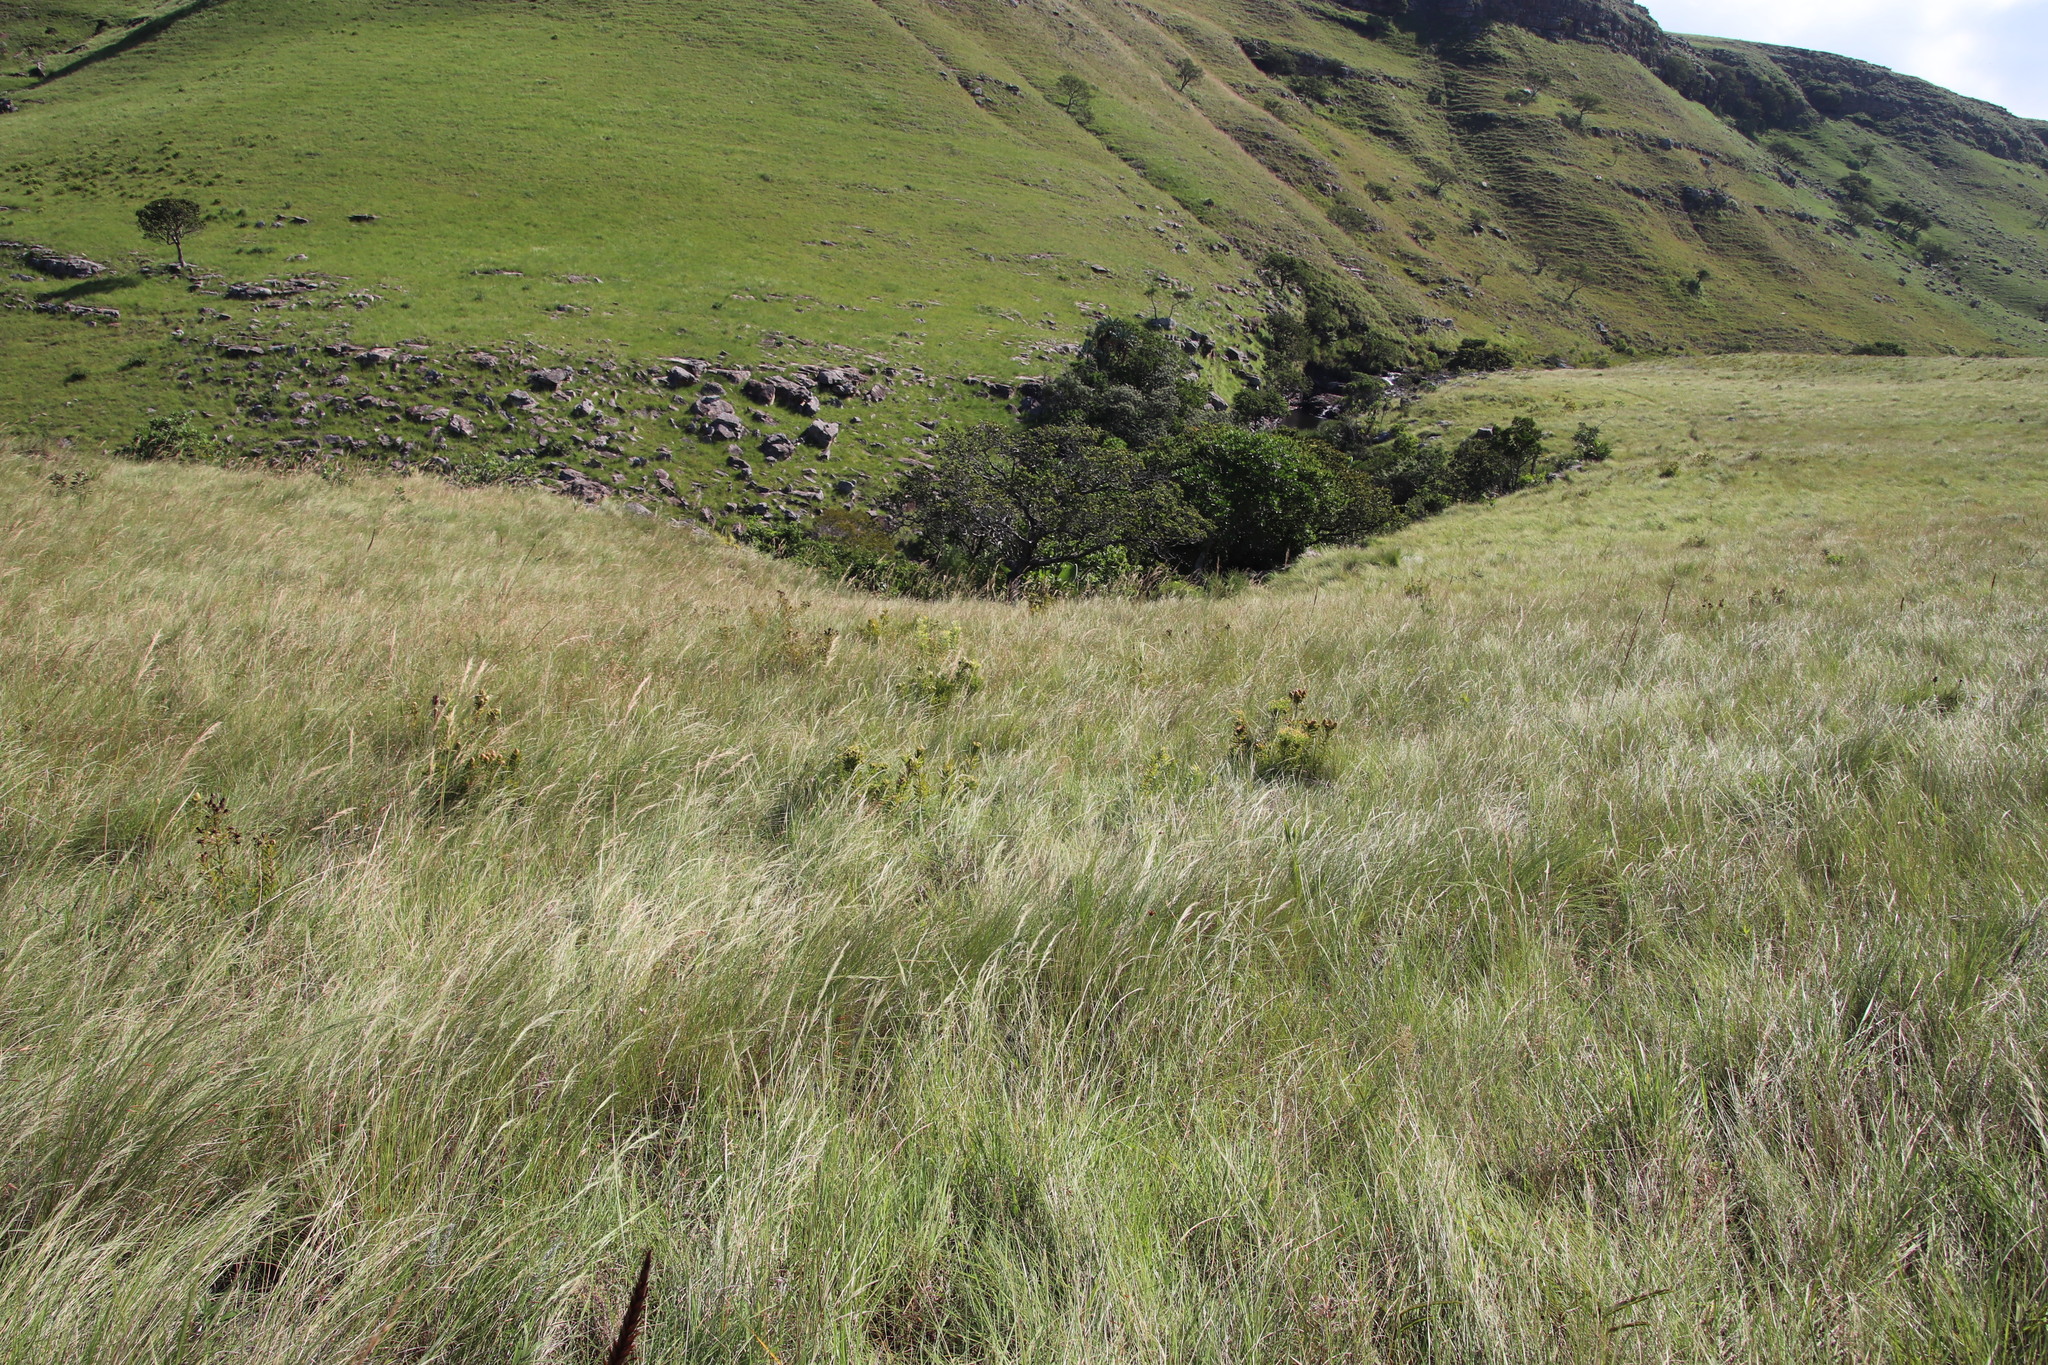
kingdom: Plantae
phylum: Tracheophyta
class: Magnoliopsida
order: Proteales
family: Proteaceae
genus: Leucadendron
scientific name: Leucadendron spissifolium
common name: Spear-leaf conebush
